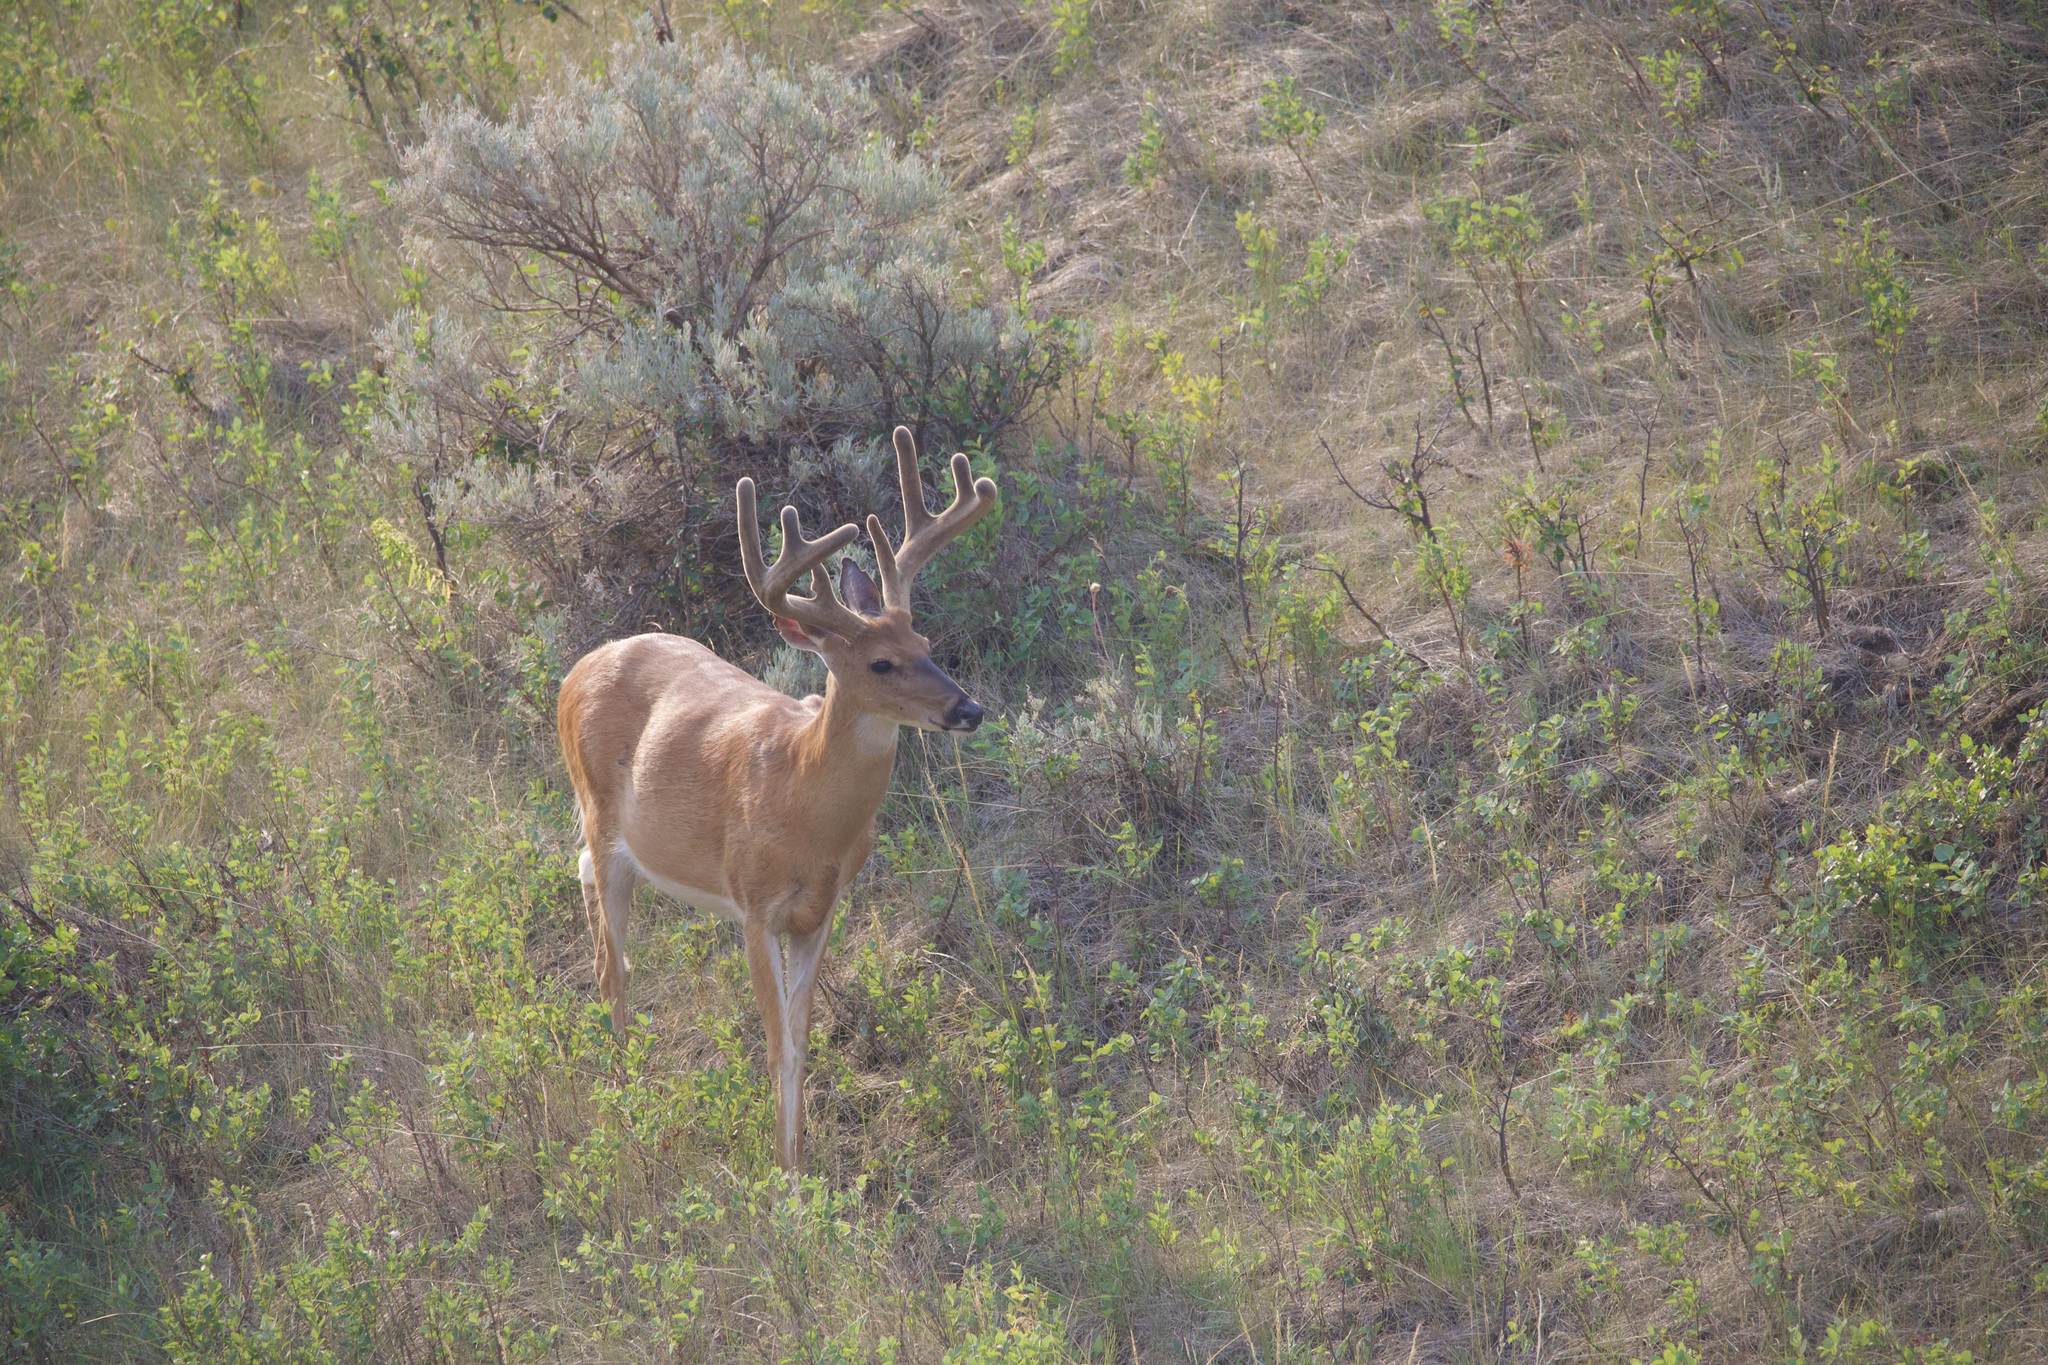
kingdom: Animalia
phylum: Chordata
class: Mammalia
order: Artiodactyla
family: Cervidae
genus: Odocoileus
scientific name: Odocoileus virginianus
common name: White-tailed deer
